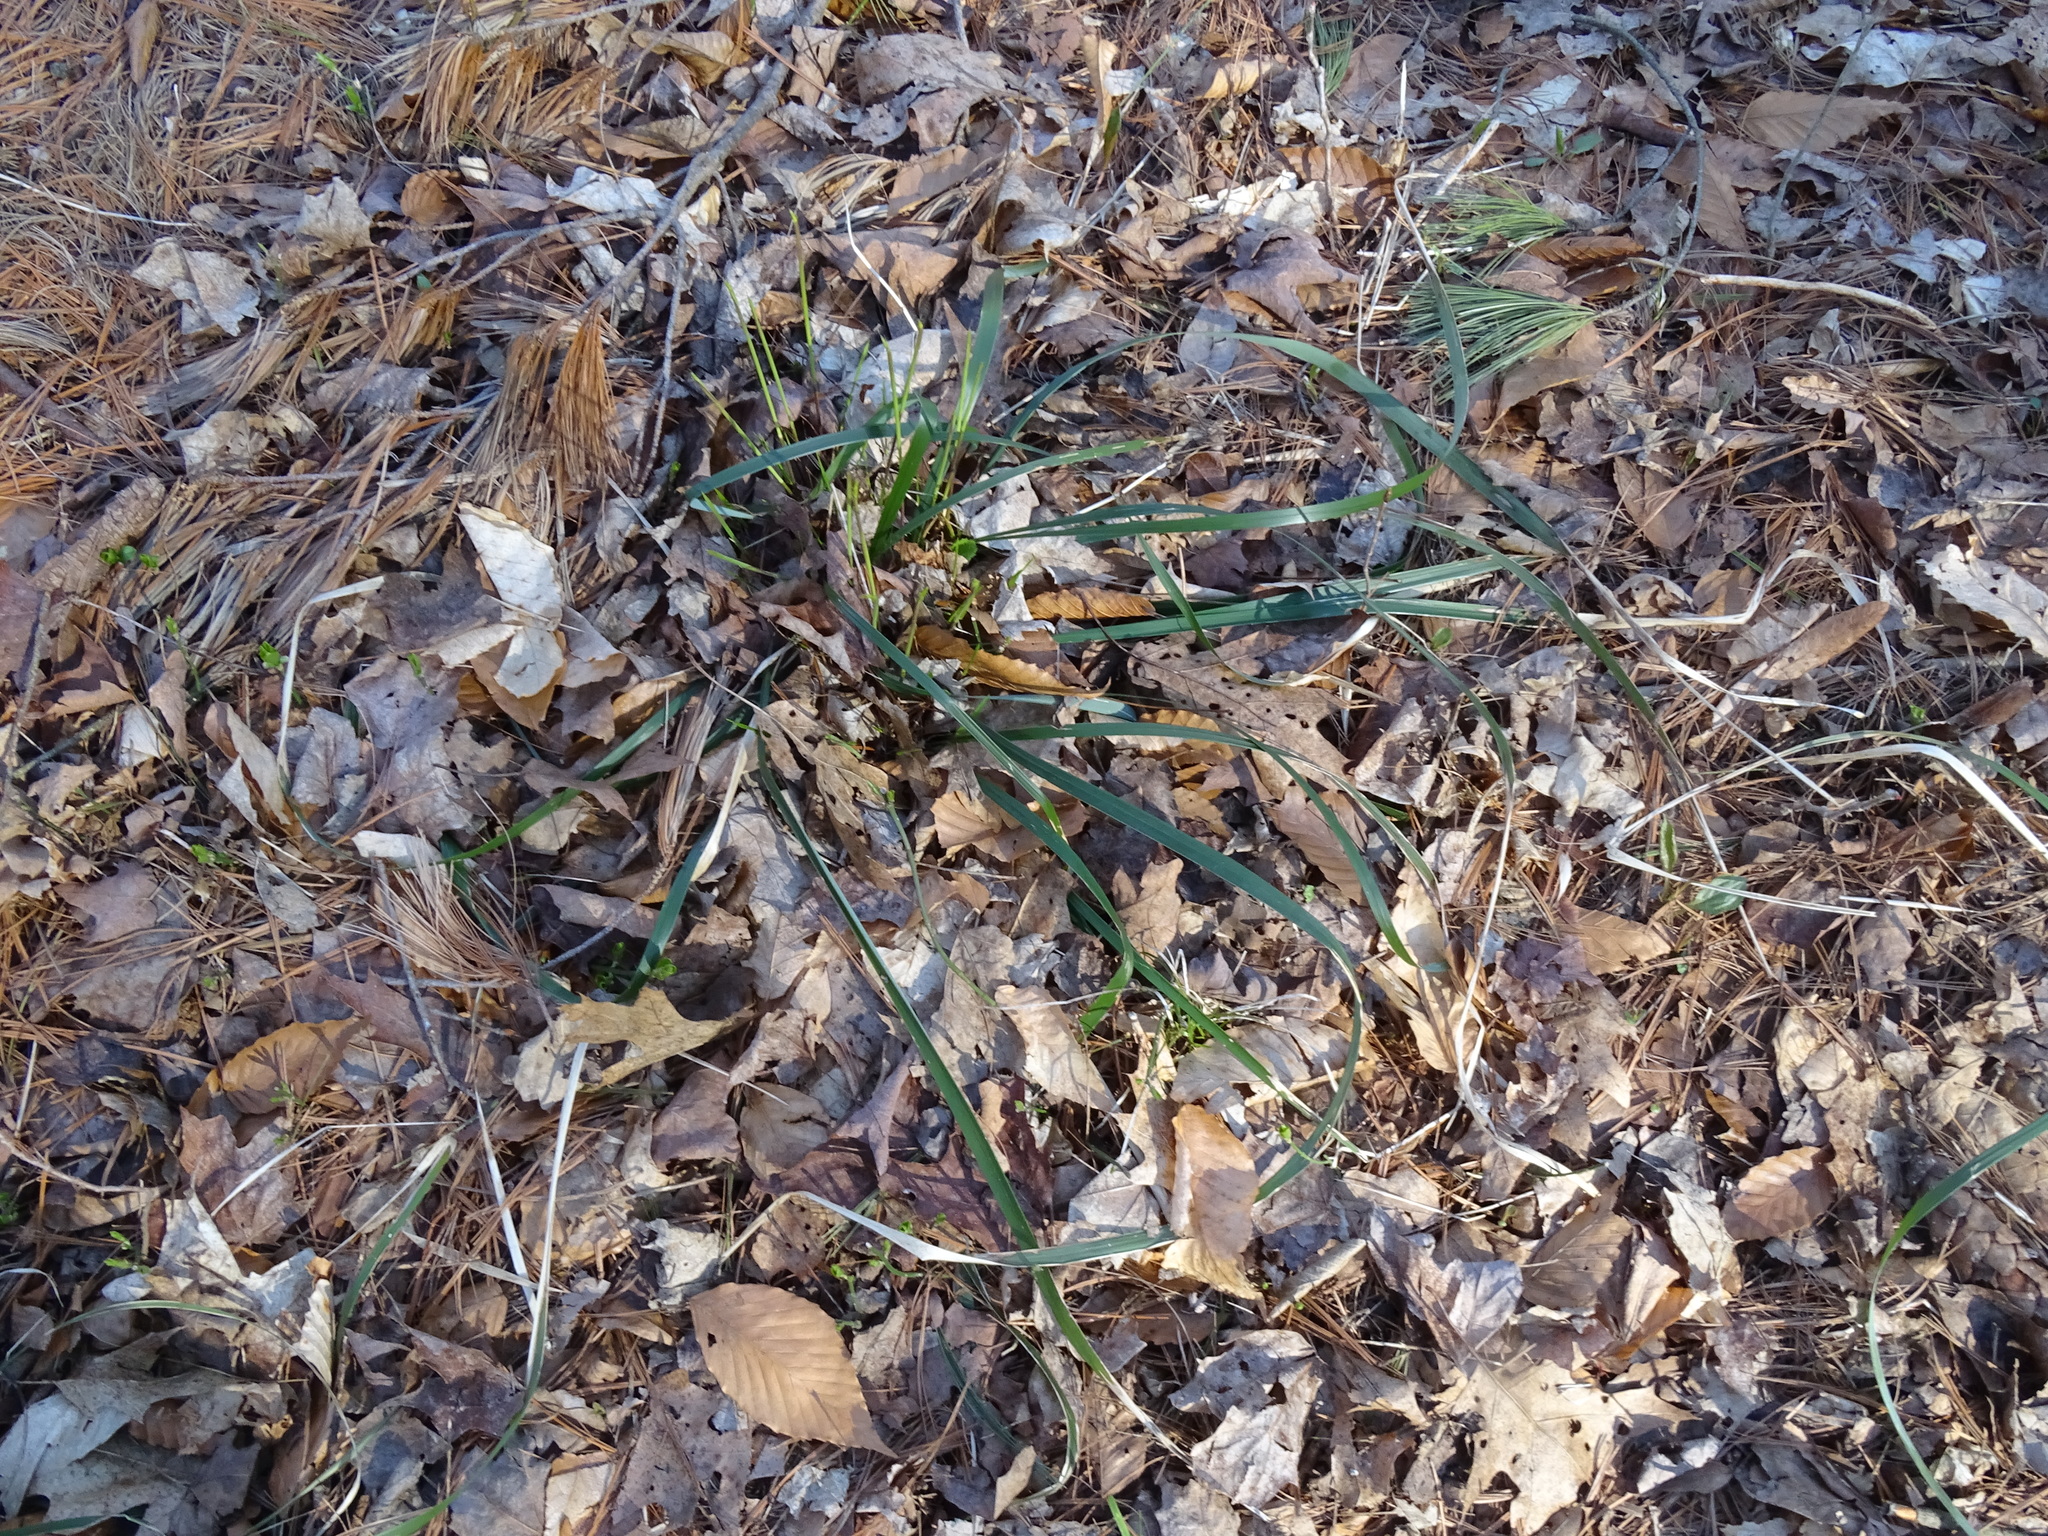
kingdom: Plantae
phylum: Tracheophyta
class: Liliopsida
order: Poales
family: Poaceae
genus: Oryzopsis
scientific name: Oryzopsis asperifolia
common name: Rough-leaved mountain rice
